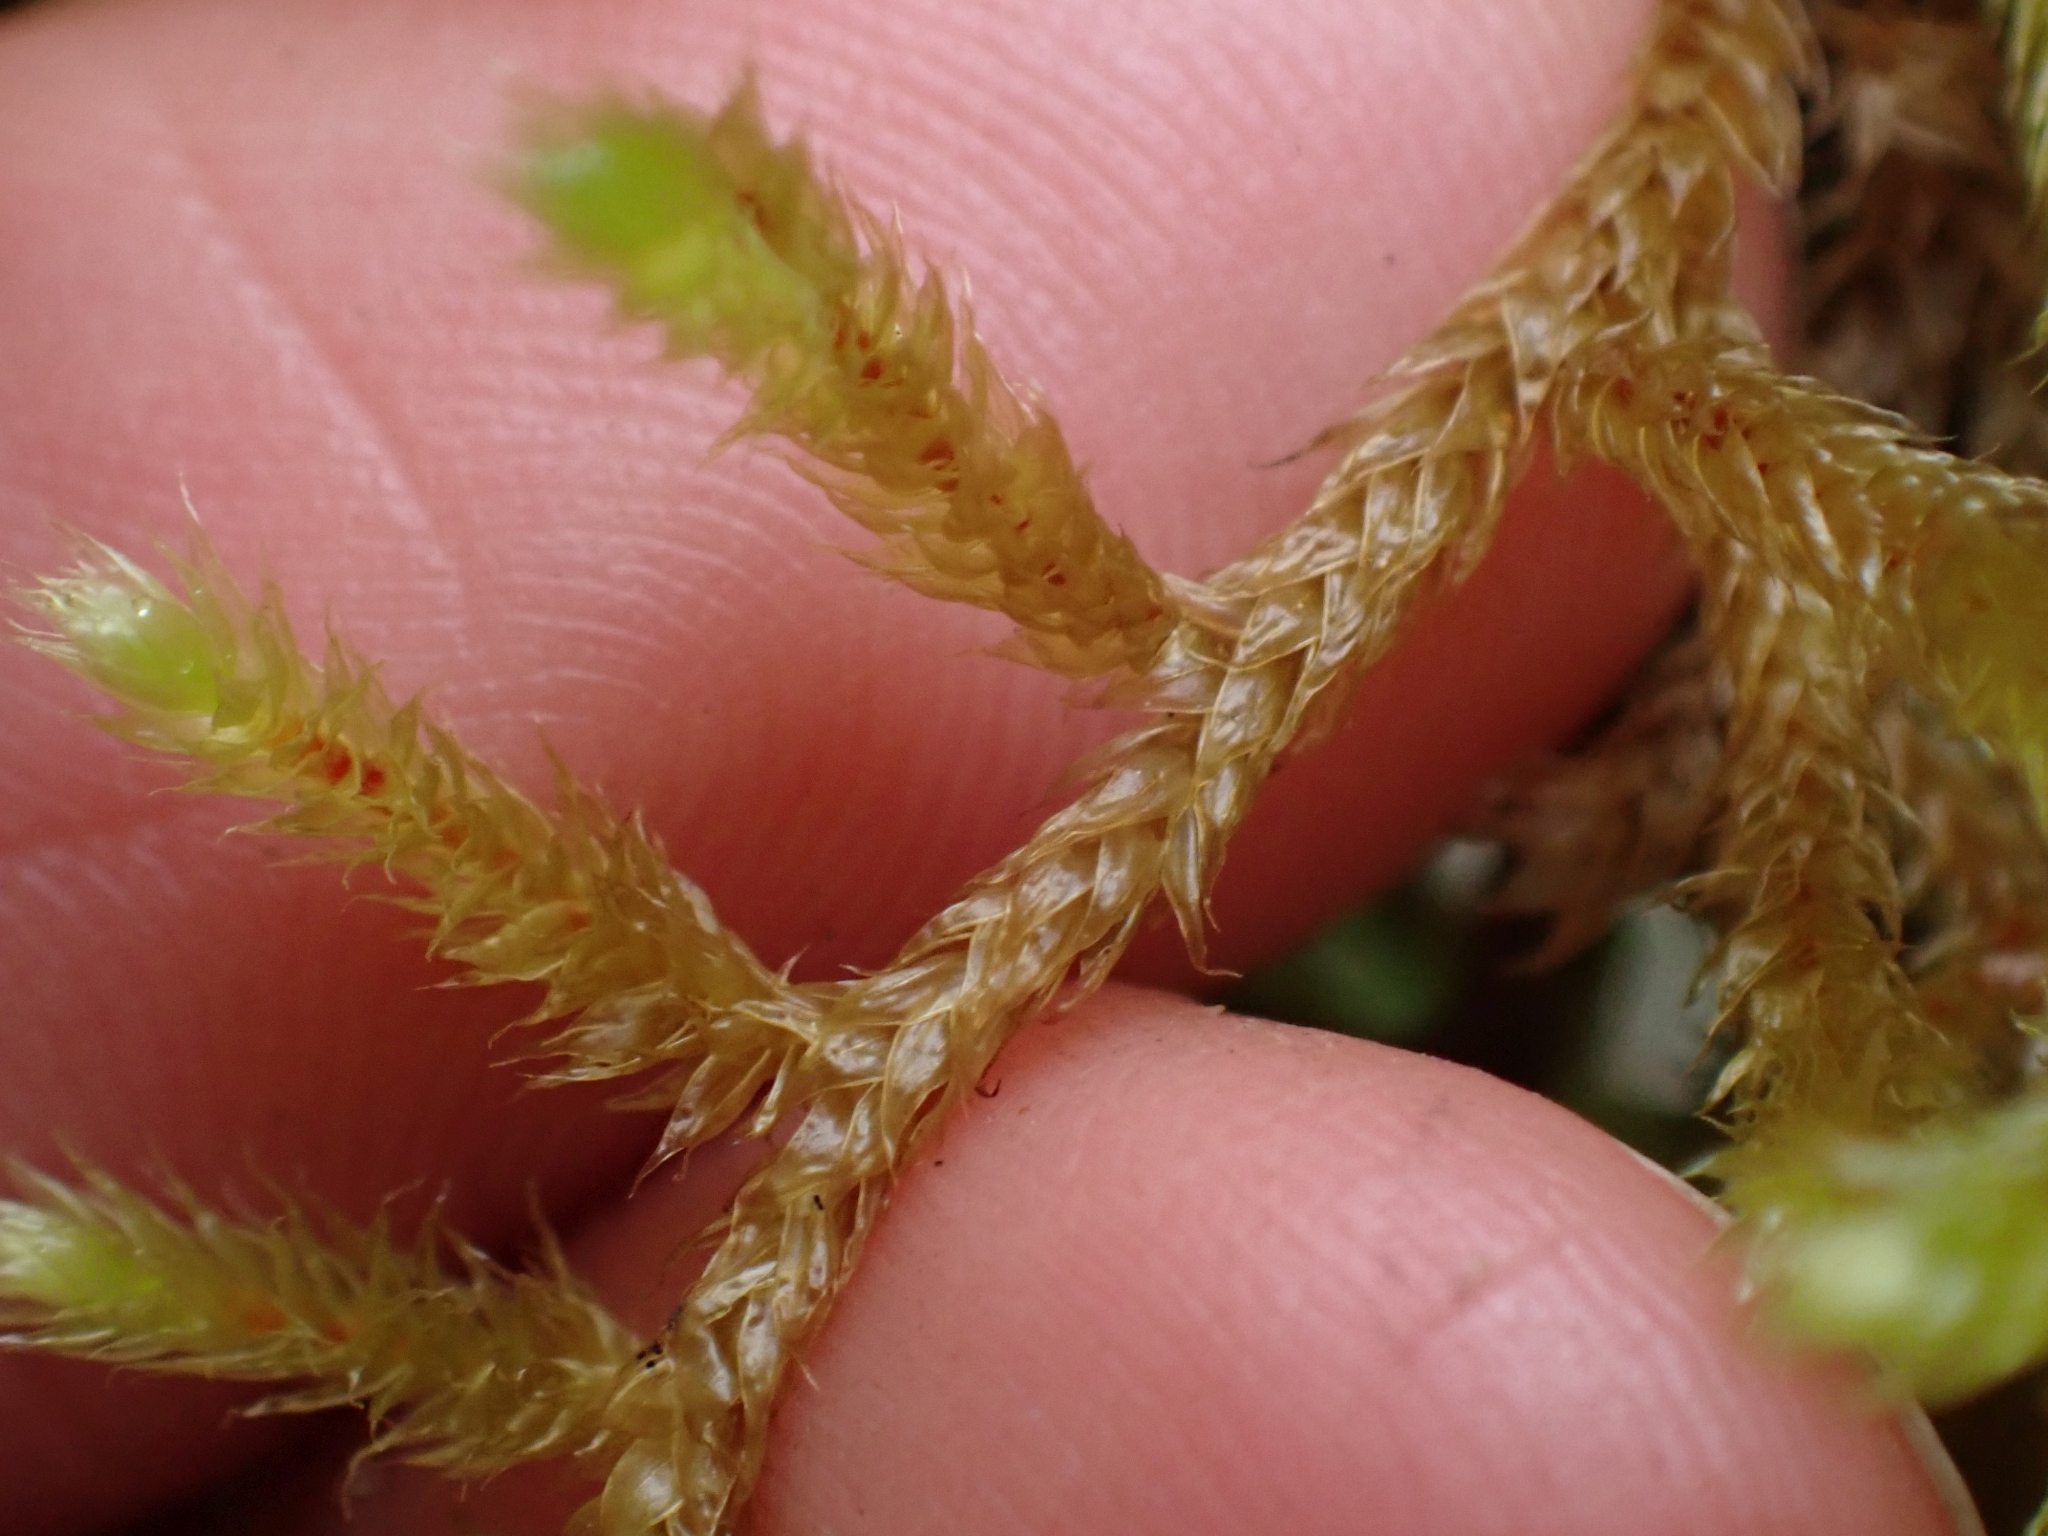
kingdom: Plantae
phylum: Bryophyta
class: Bryopsida
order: Hypnales
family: Antitrichiaceae
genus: Antitrichia
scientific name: Antitrichia curtipendula
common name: Pendulous wing-moss
